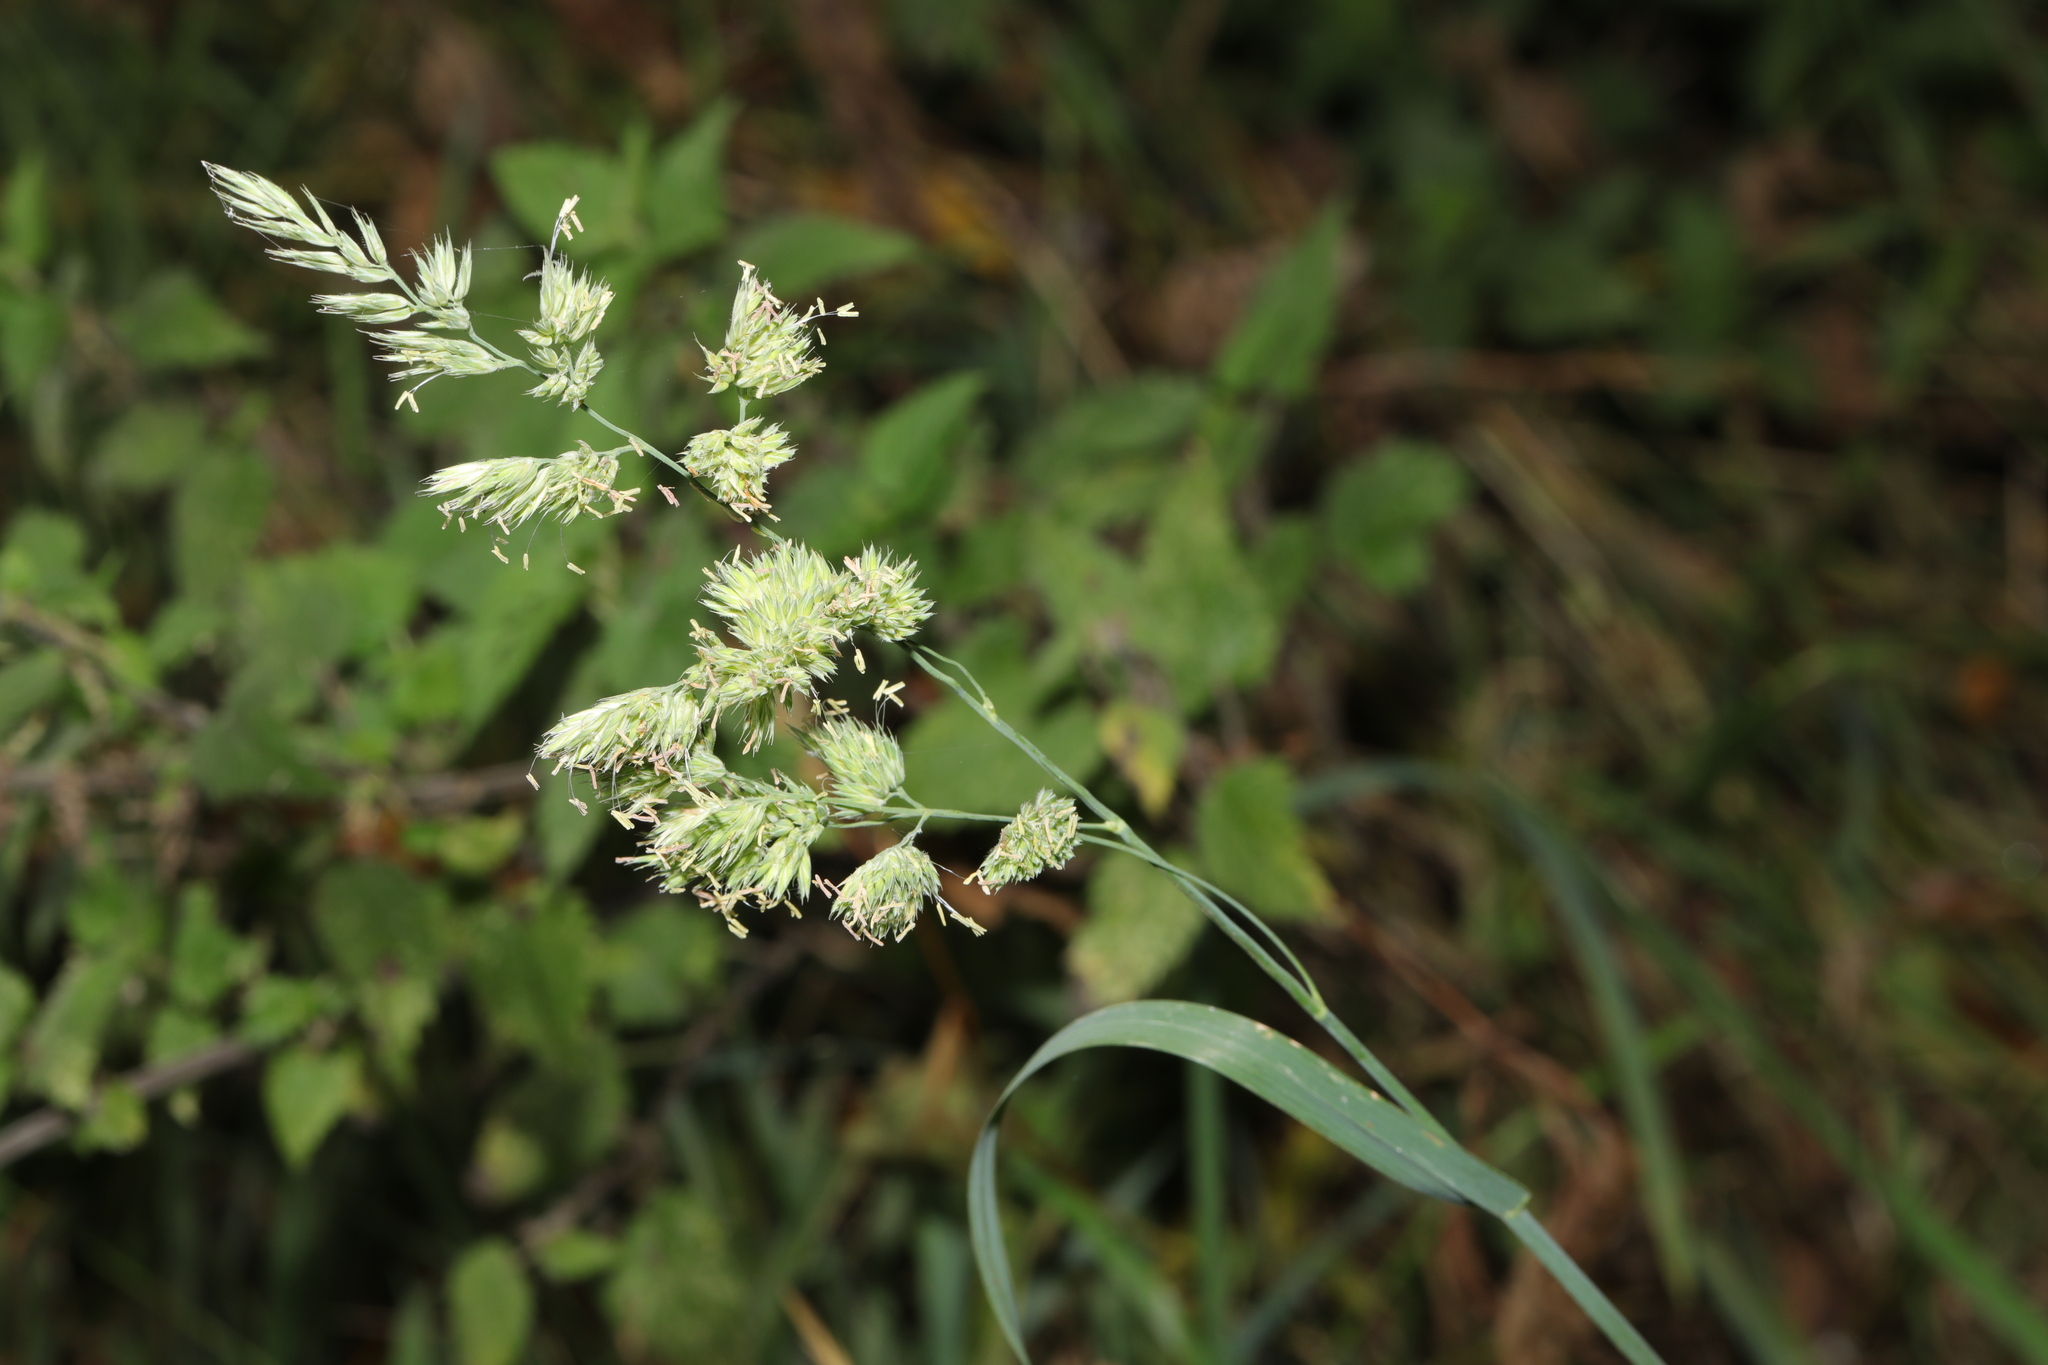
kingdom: Plantae
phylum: Tracheophyta
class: Liliopsida
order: Poales
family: Poaceae
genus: Dactylis
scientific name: Dactylis glomerata
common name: Orchardgrass
